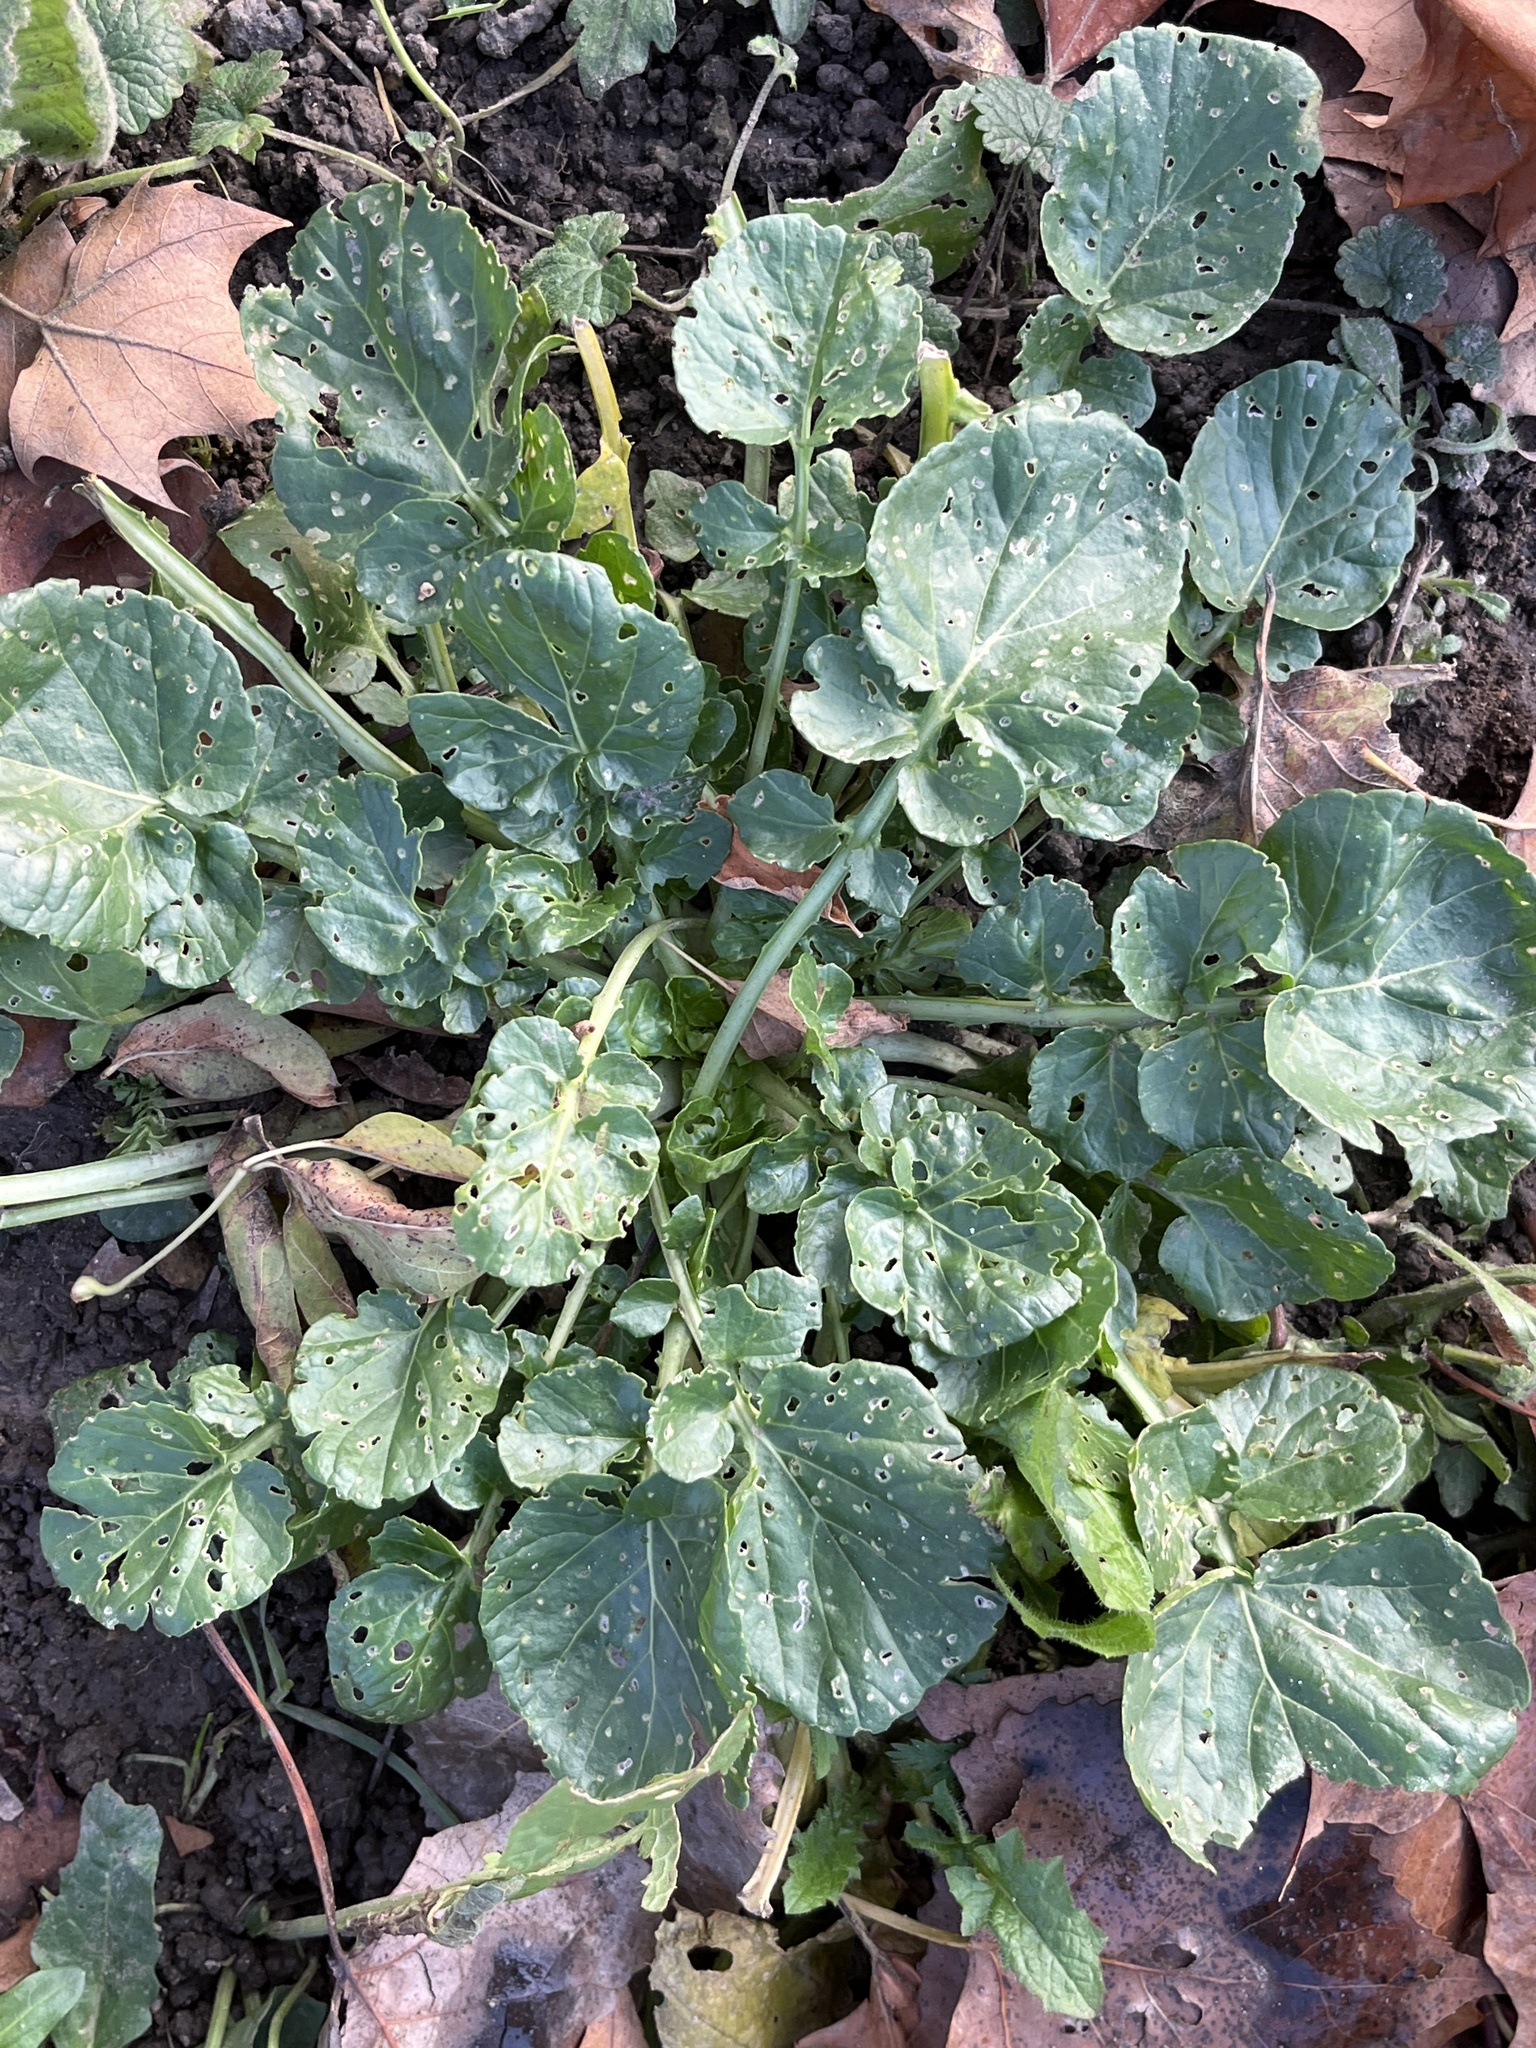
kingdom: Plantae
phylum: Tracheophyta
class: Magnoliopsida
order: Brassicales
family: Brassicaceae
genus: Barbarea
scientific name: Barbarea vulgaris
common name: Cressy-greens
